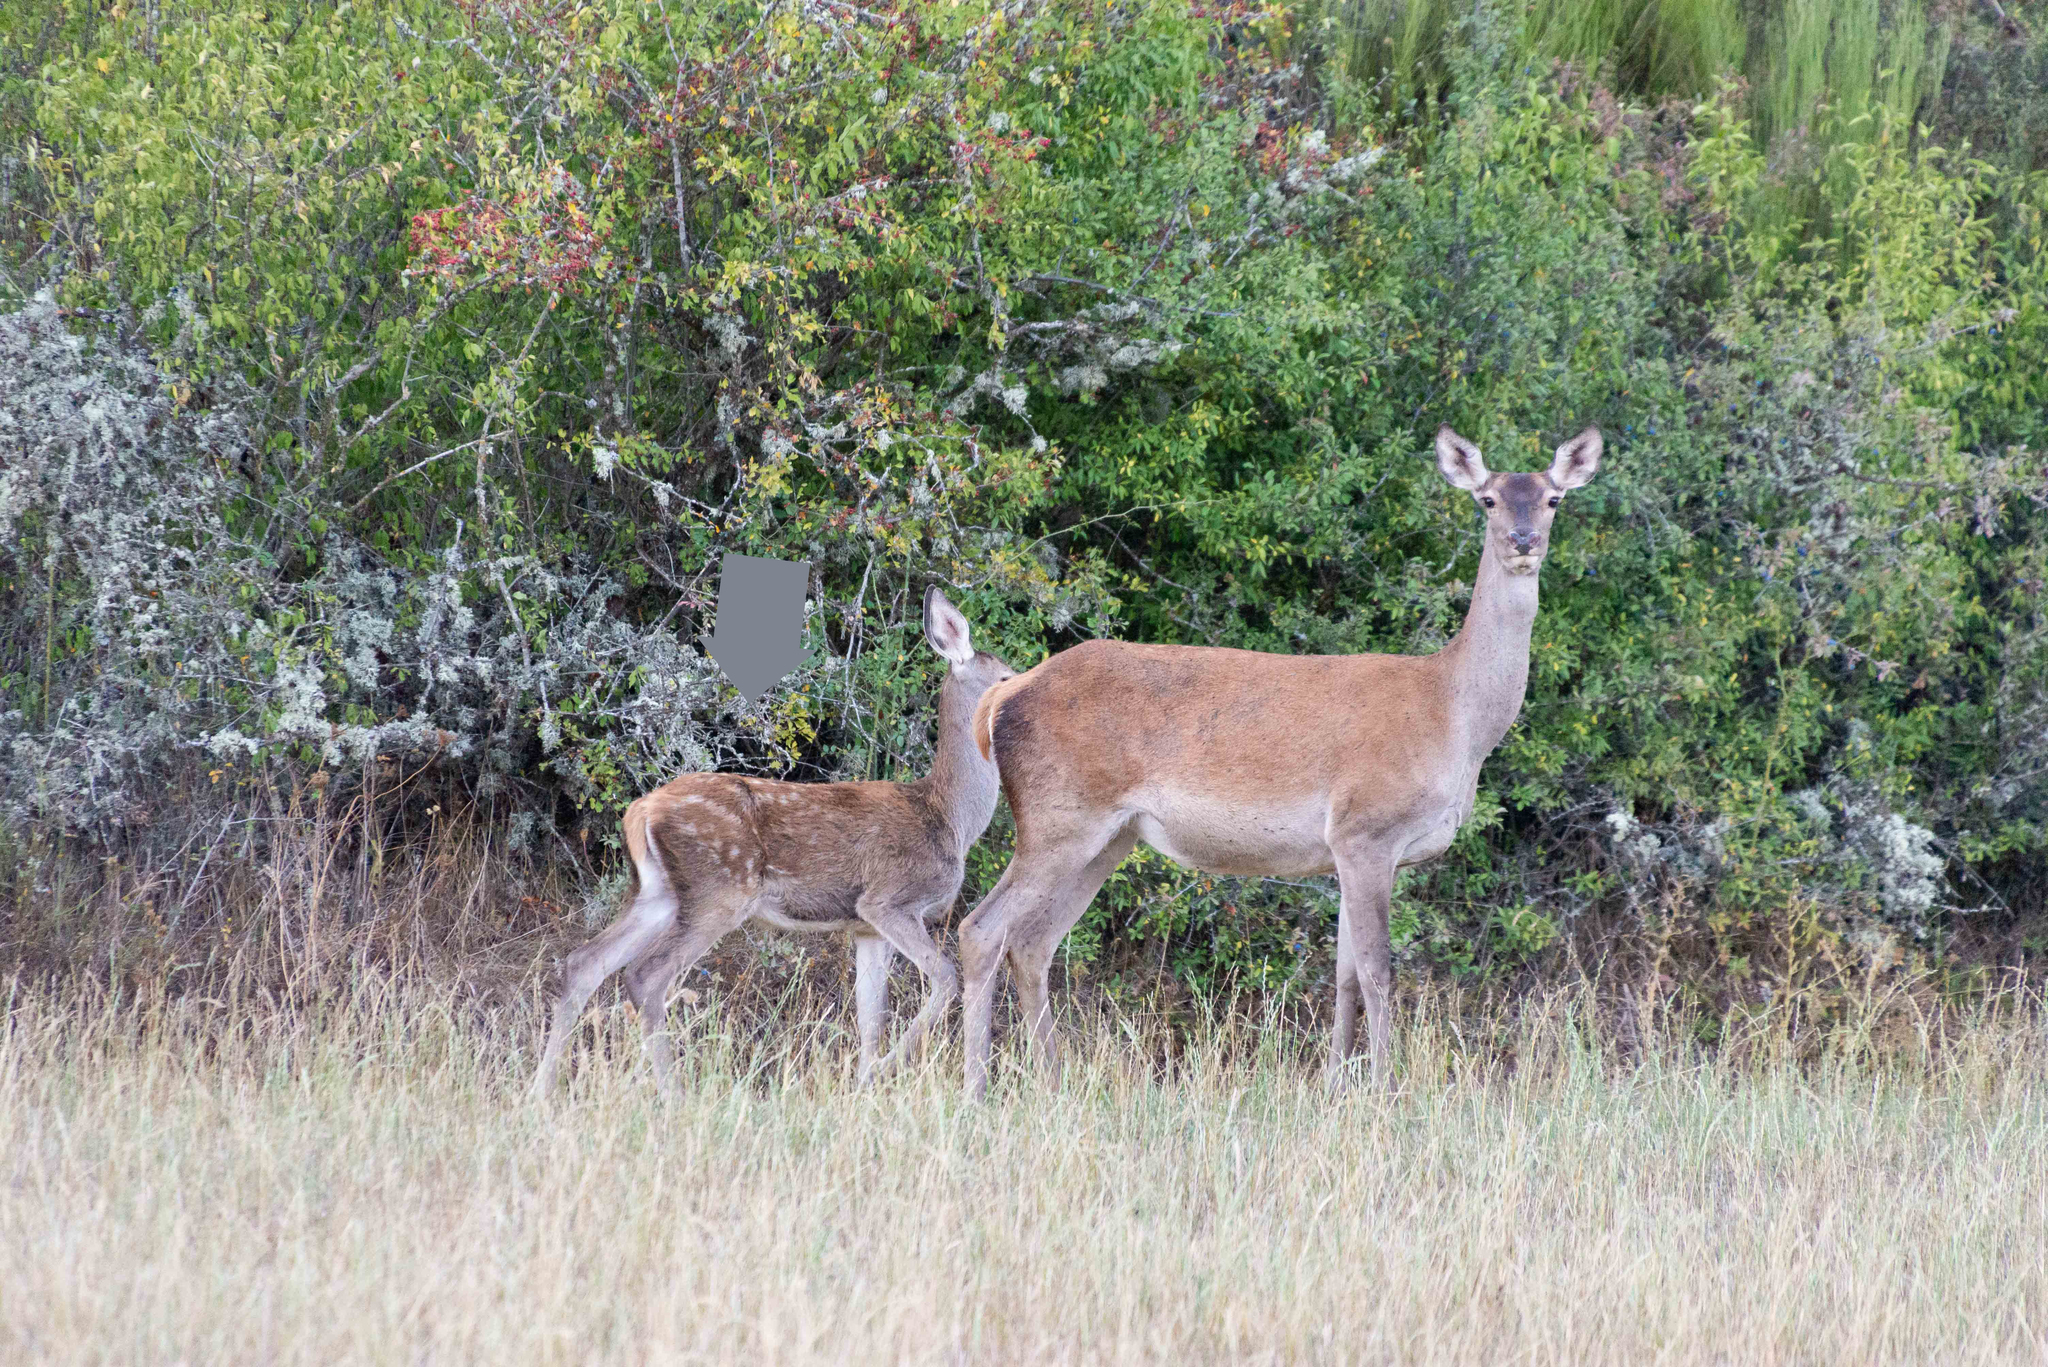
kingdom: Animalia
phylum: Chordata
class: Mammalia
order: Artiodactyla
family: Cervidae
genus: Cervus
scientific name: Cervus elaphus
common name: Red deer
